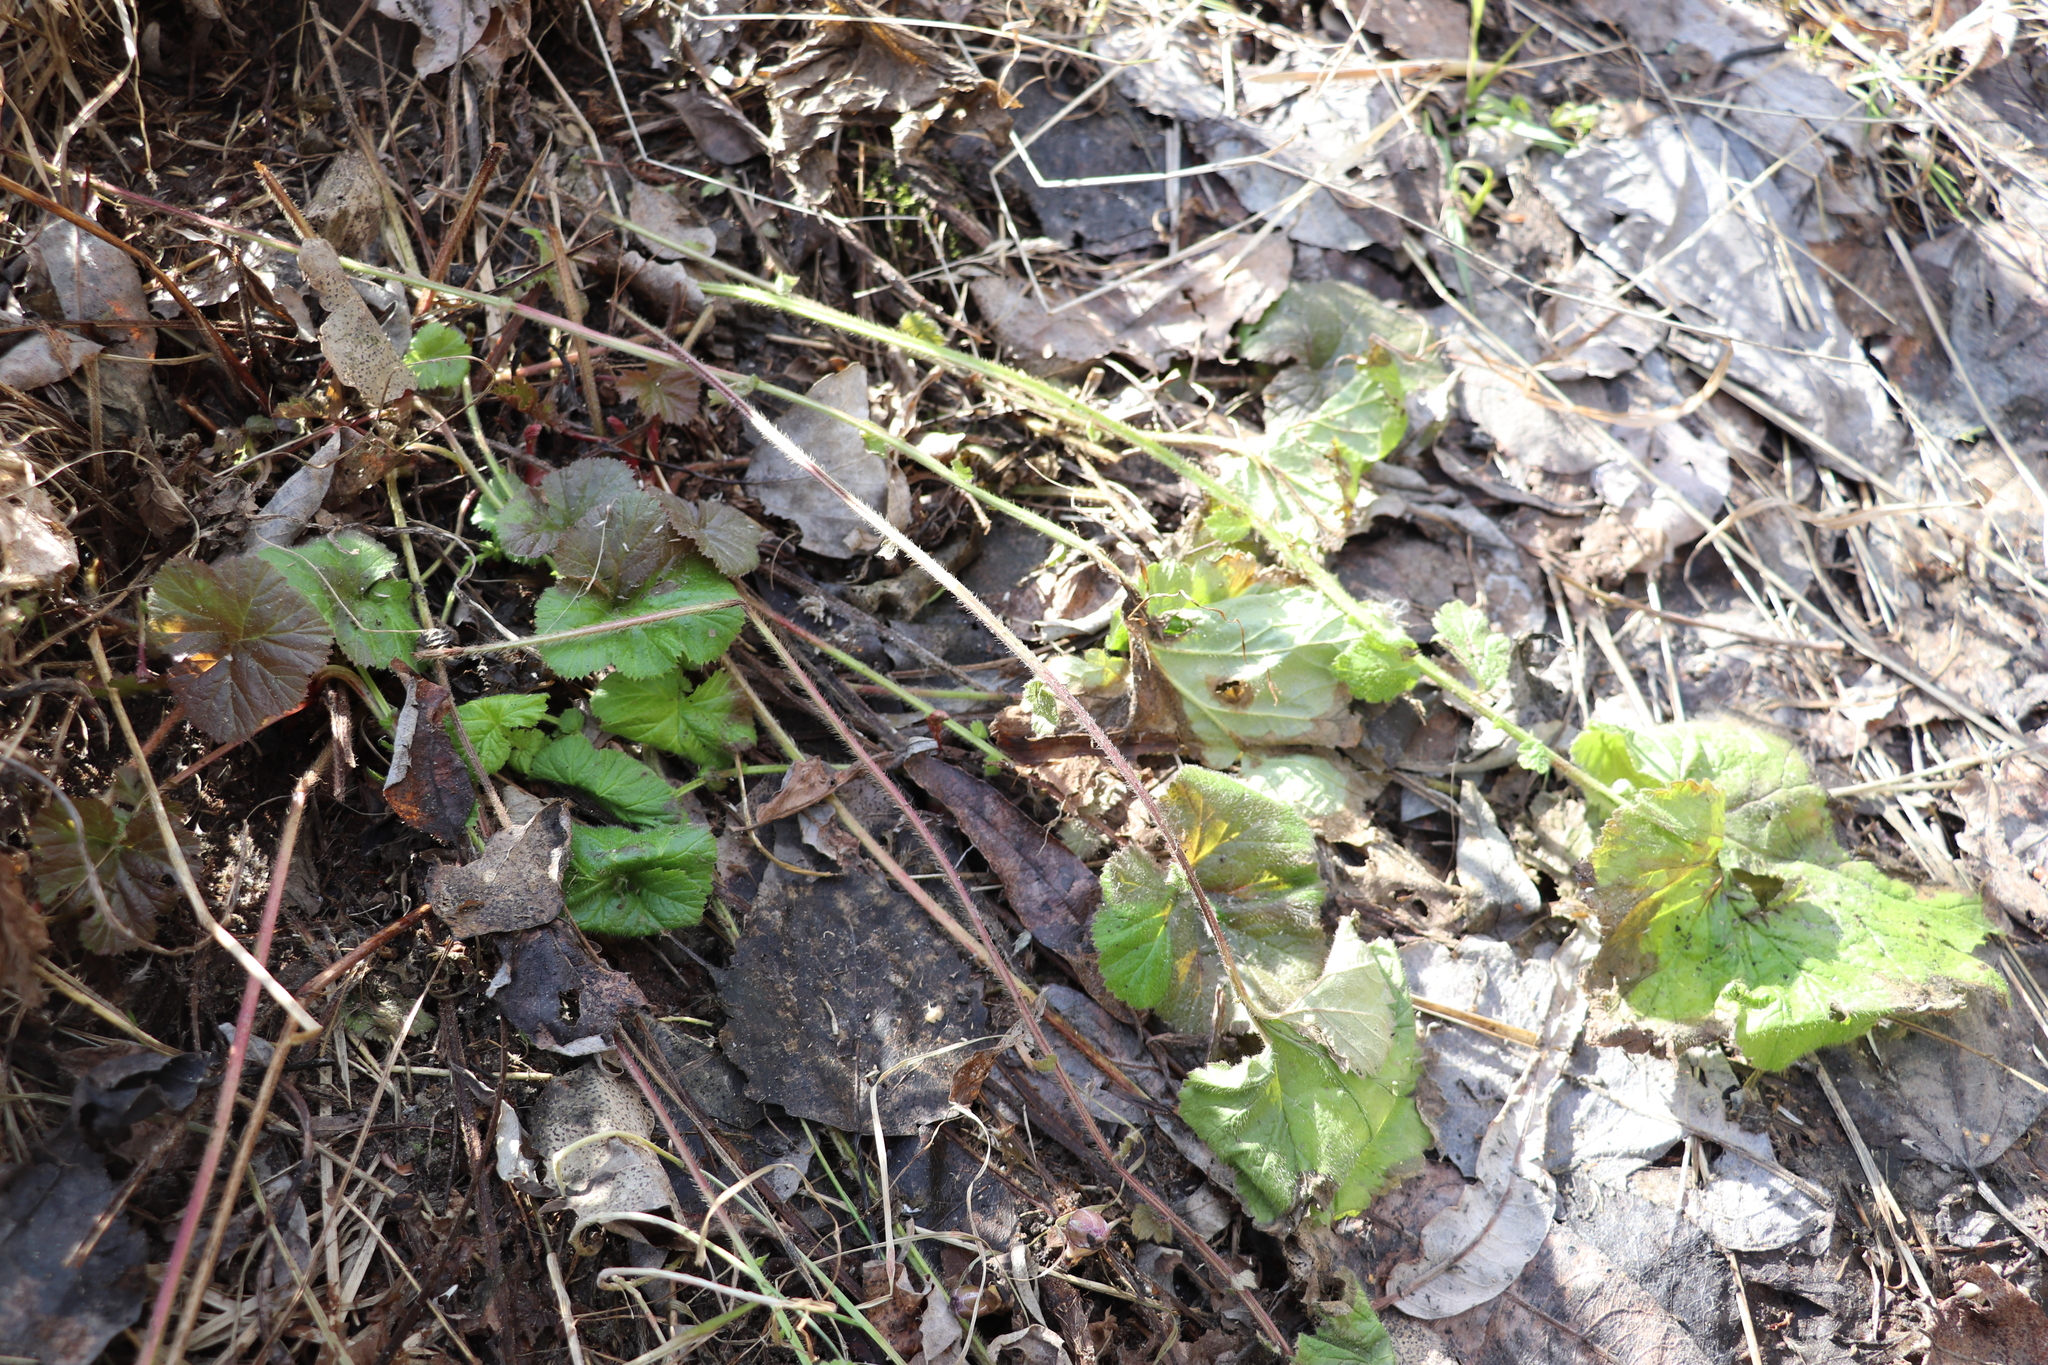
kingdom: Plantae
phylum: Tracheophyta
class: Magnoliopsida
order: Rosales
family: Rosaceae
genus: Geum
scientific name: Geum aleppicum
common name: Yellow avens
